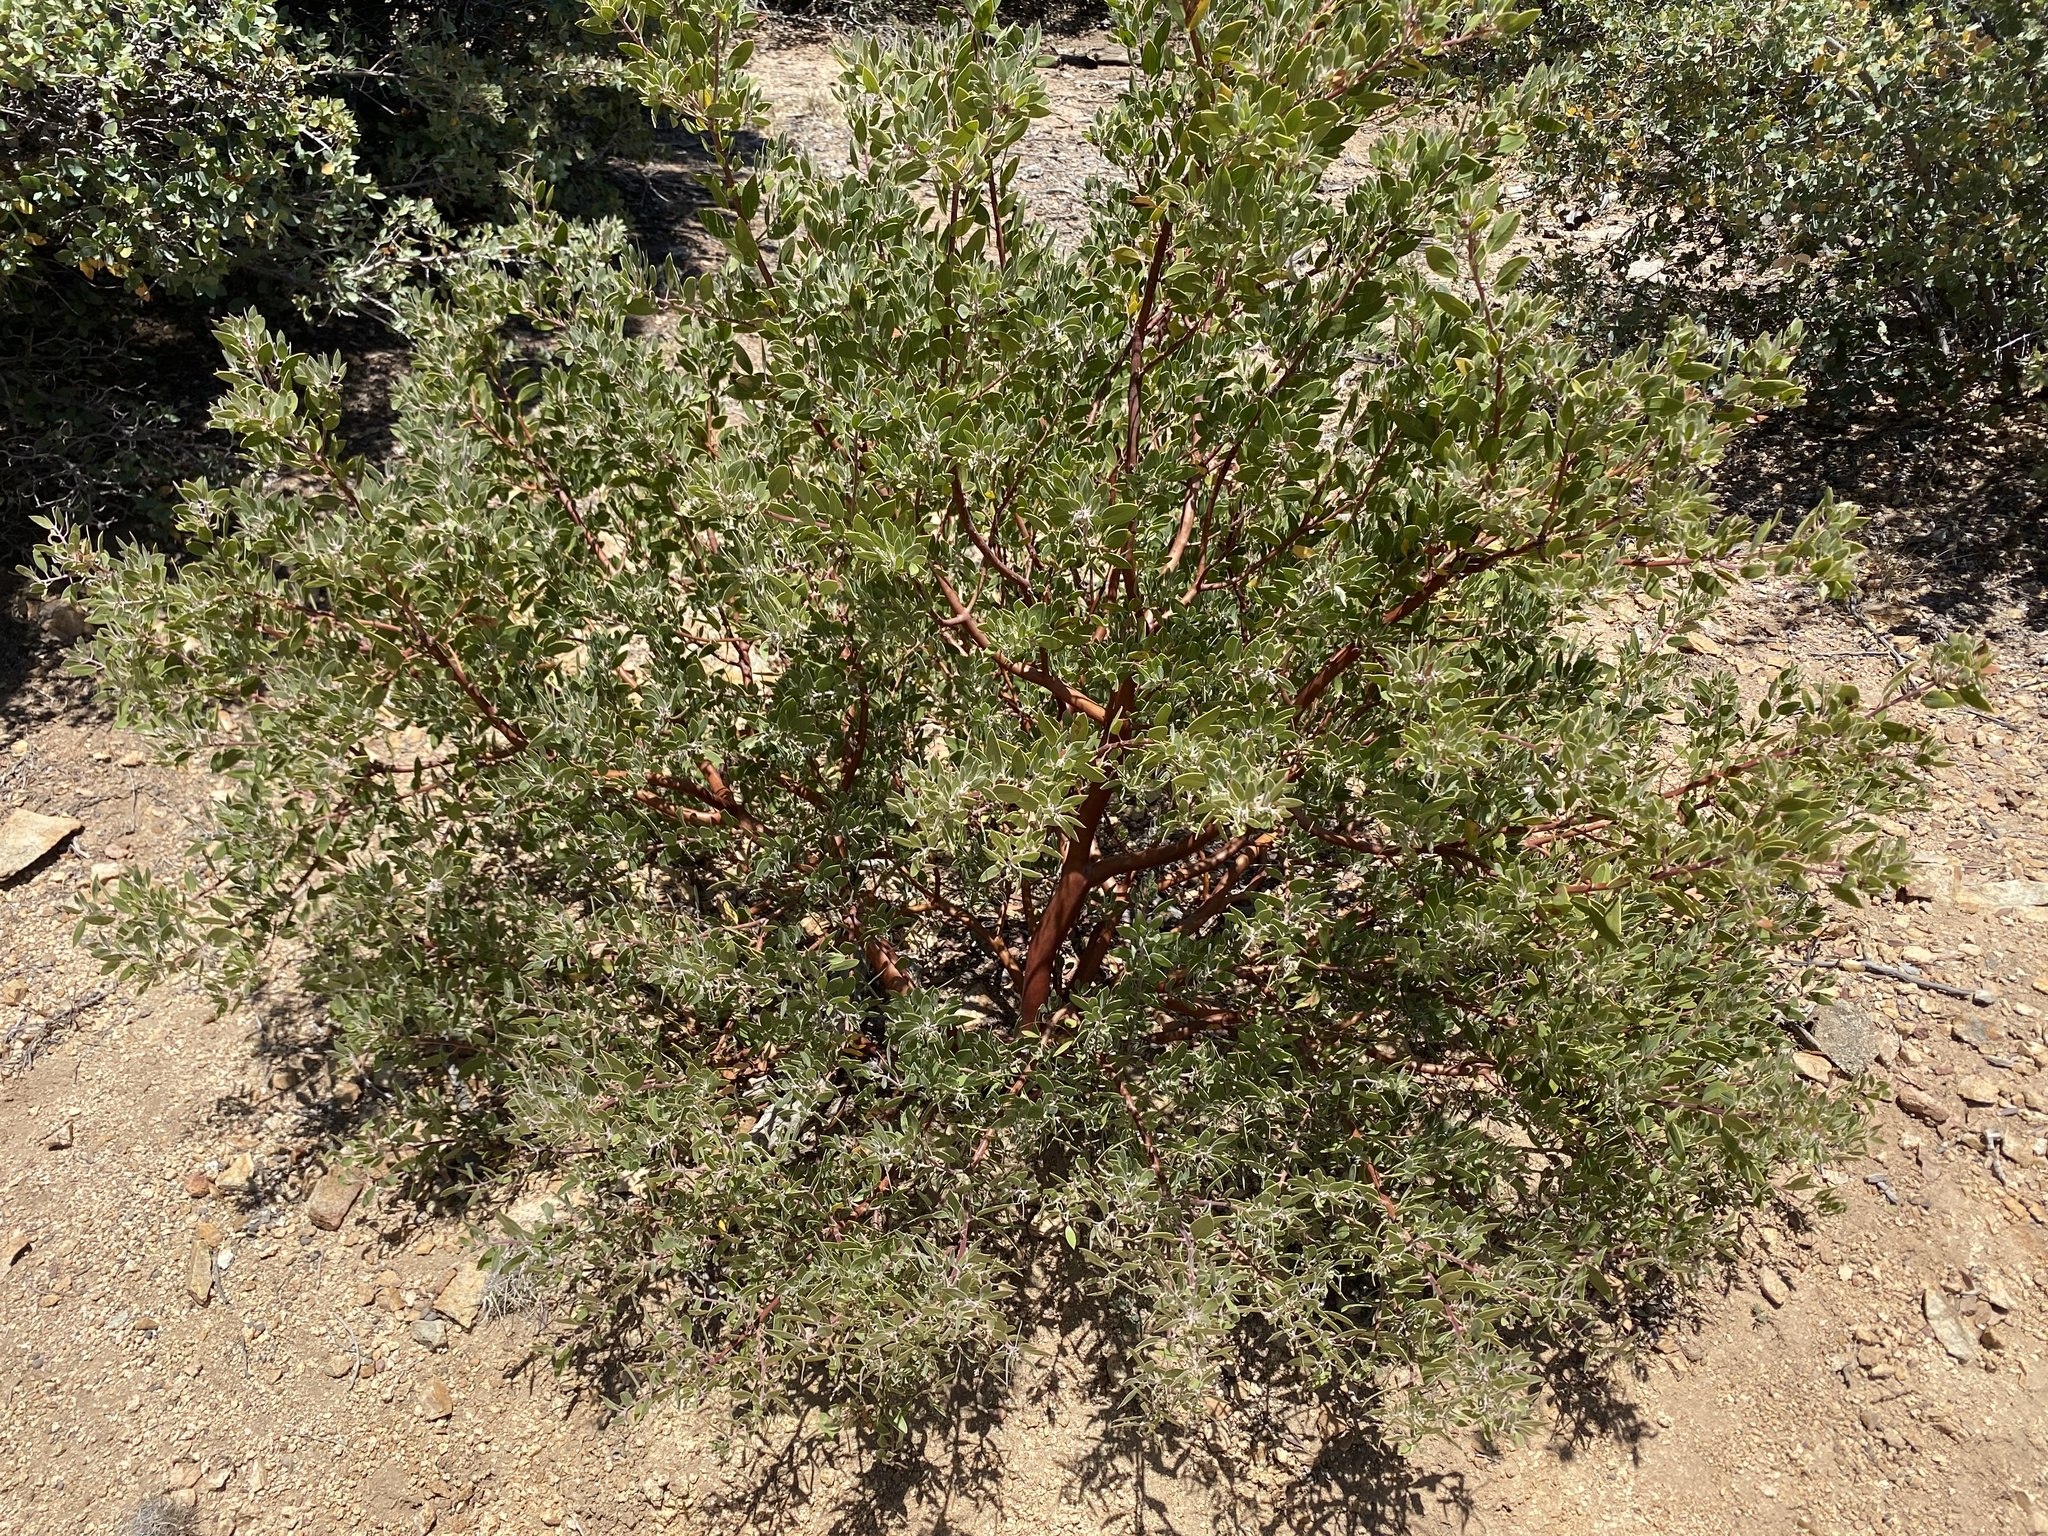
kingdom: Plantae
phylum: Tracheophyta
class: Magnoliopsida
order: Ericales
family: Ericaceae
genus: Arctostaphylos
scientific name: Arctostaphylos pungens
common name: Mexican manzanita
